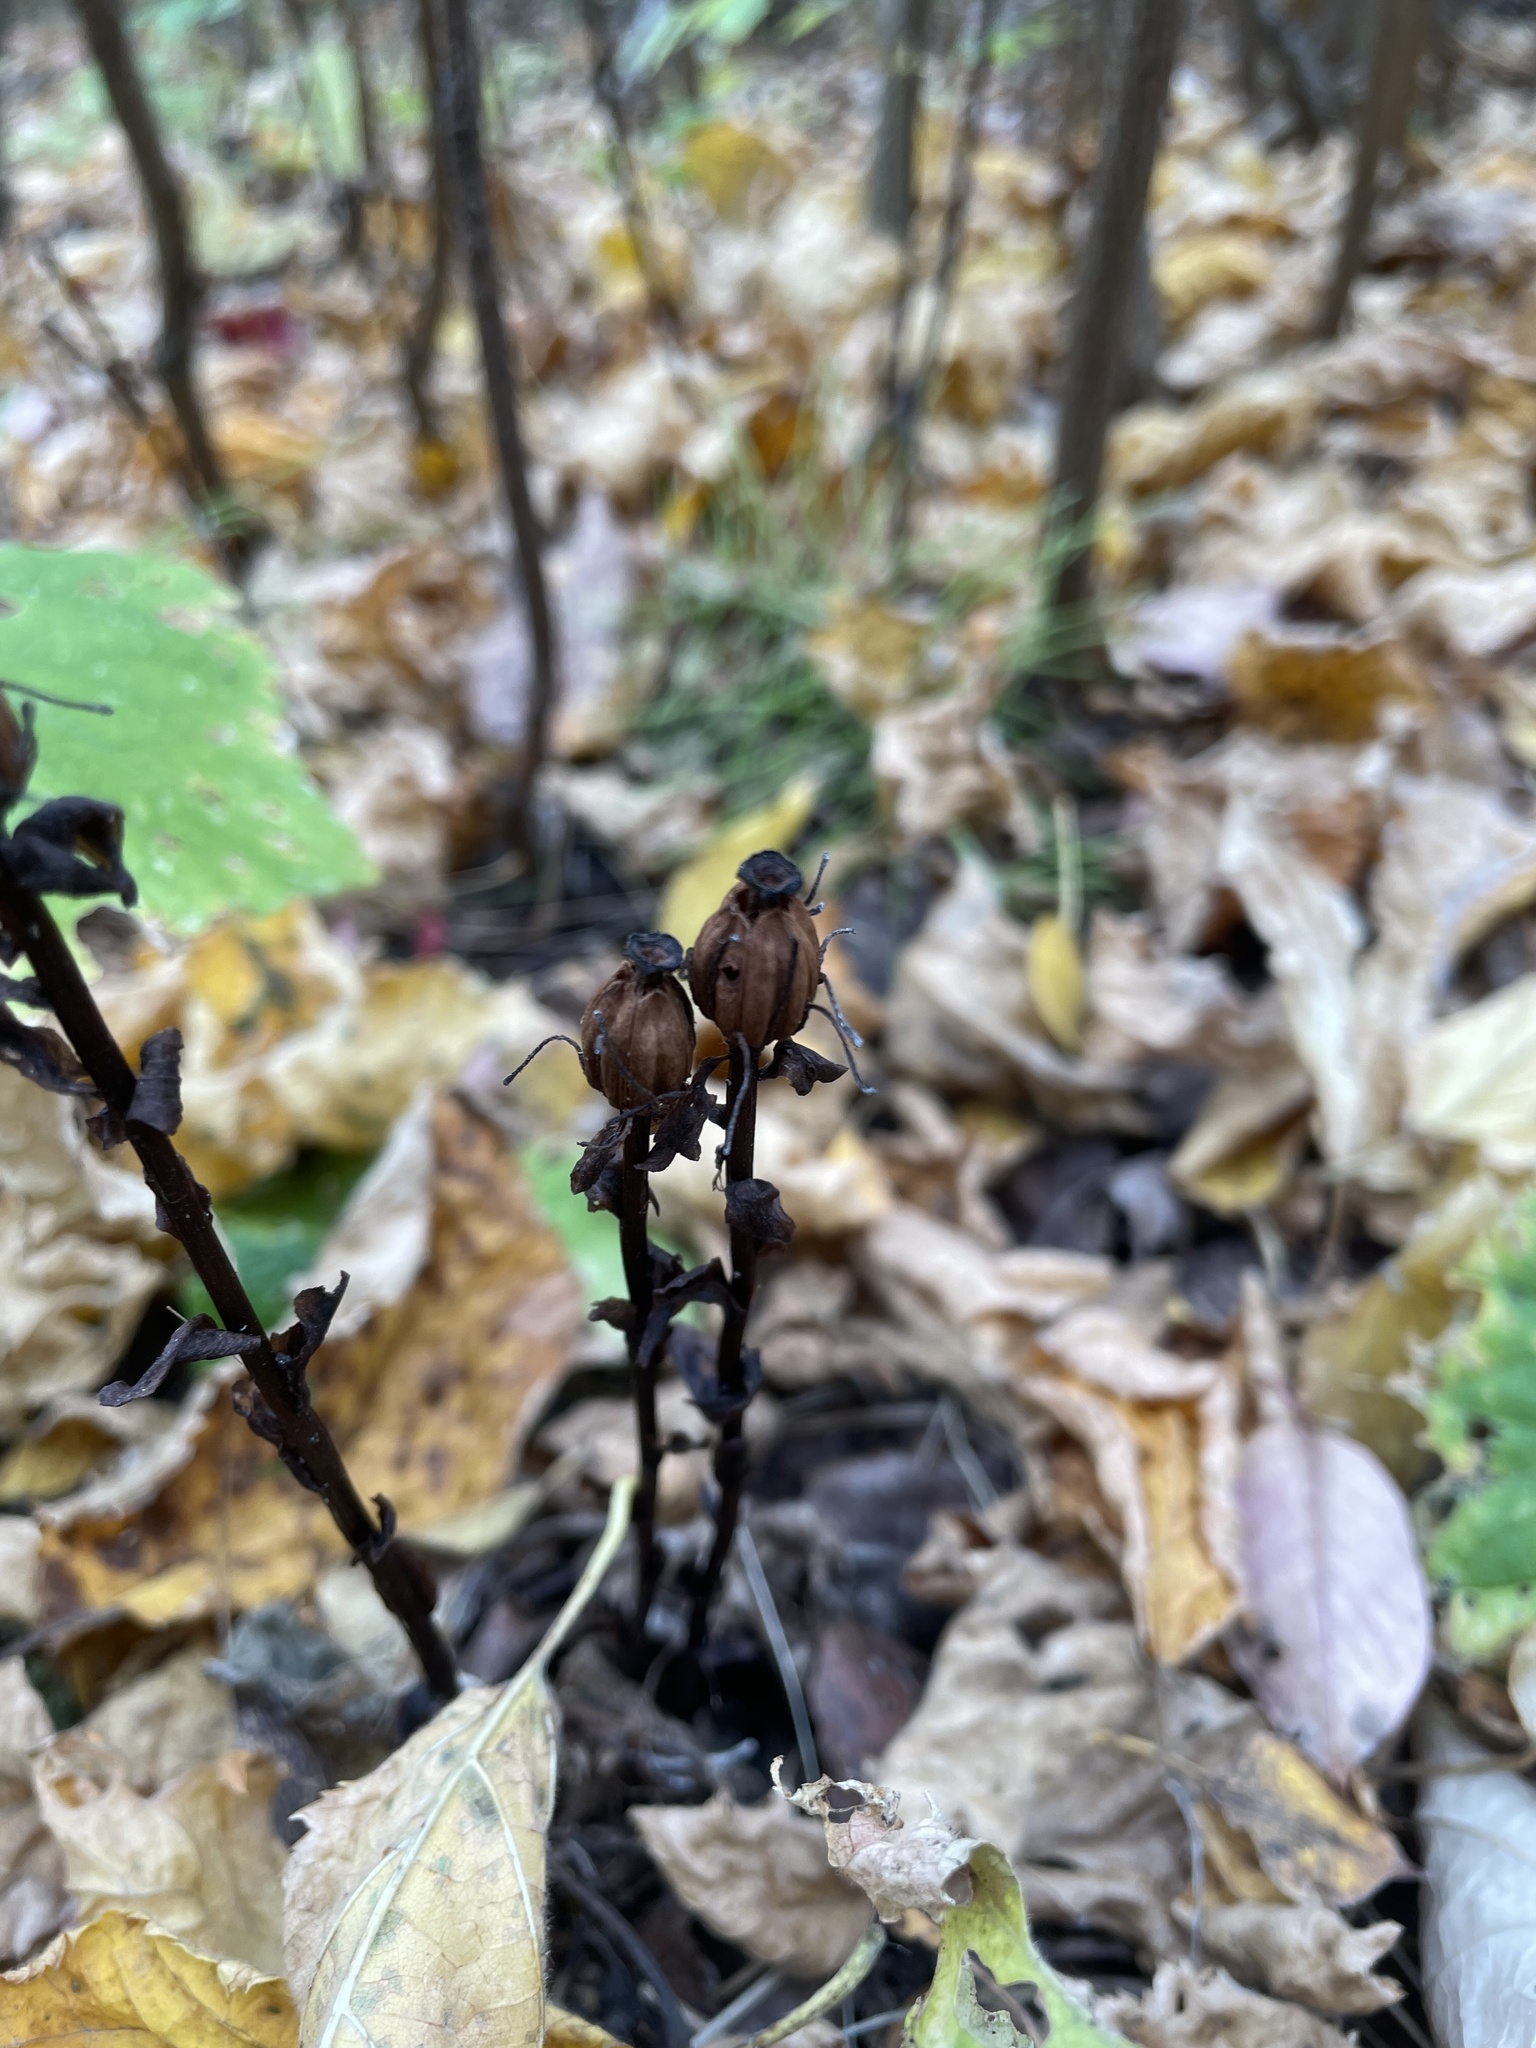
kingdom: Plantae
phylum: Tracheophyta
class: Magnoliopsida
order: Ericales
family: Ericaceae
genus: Monotropa
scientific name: Monotropa uniflora
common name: Convulsion root
